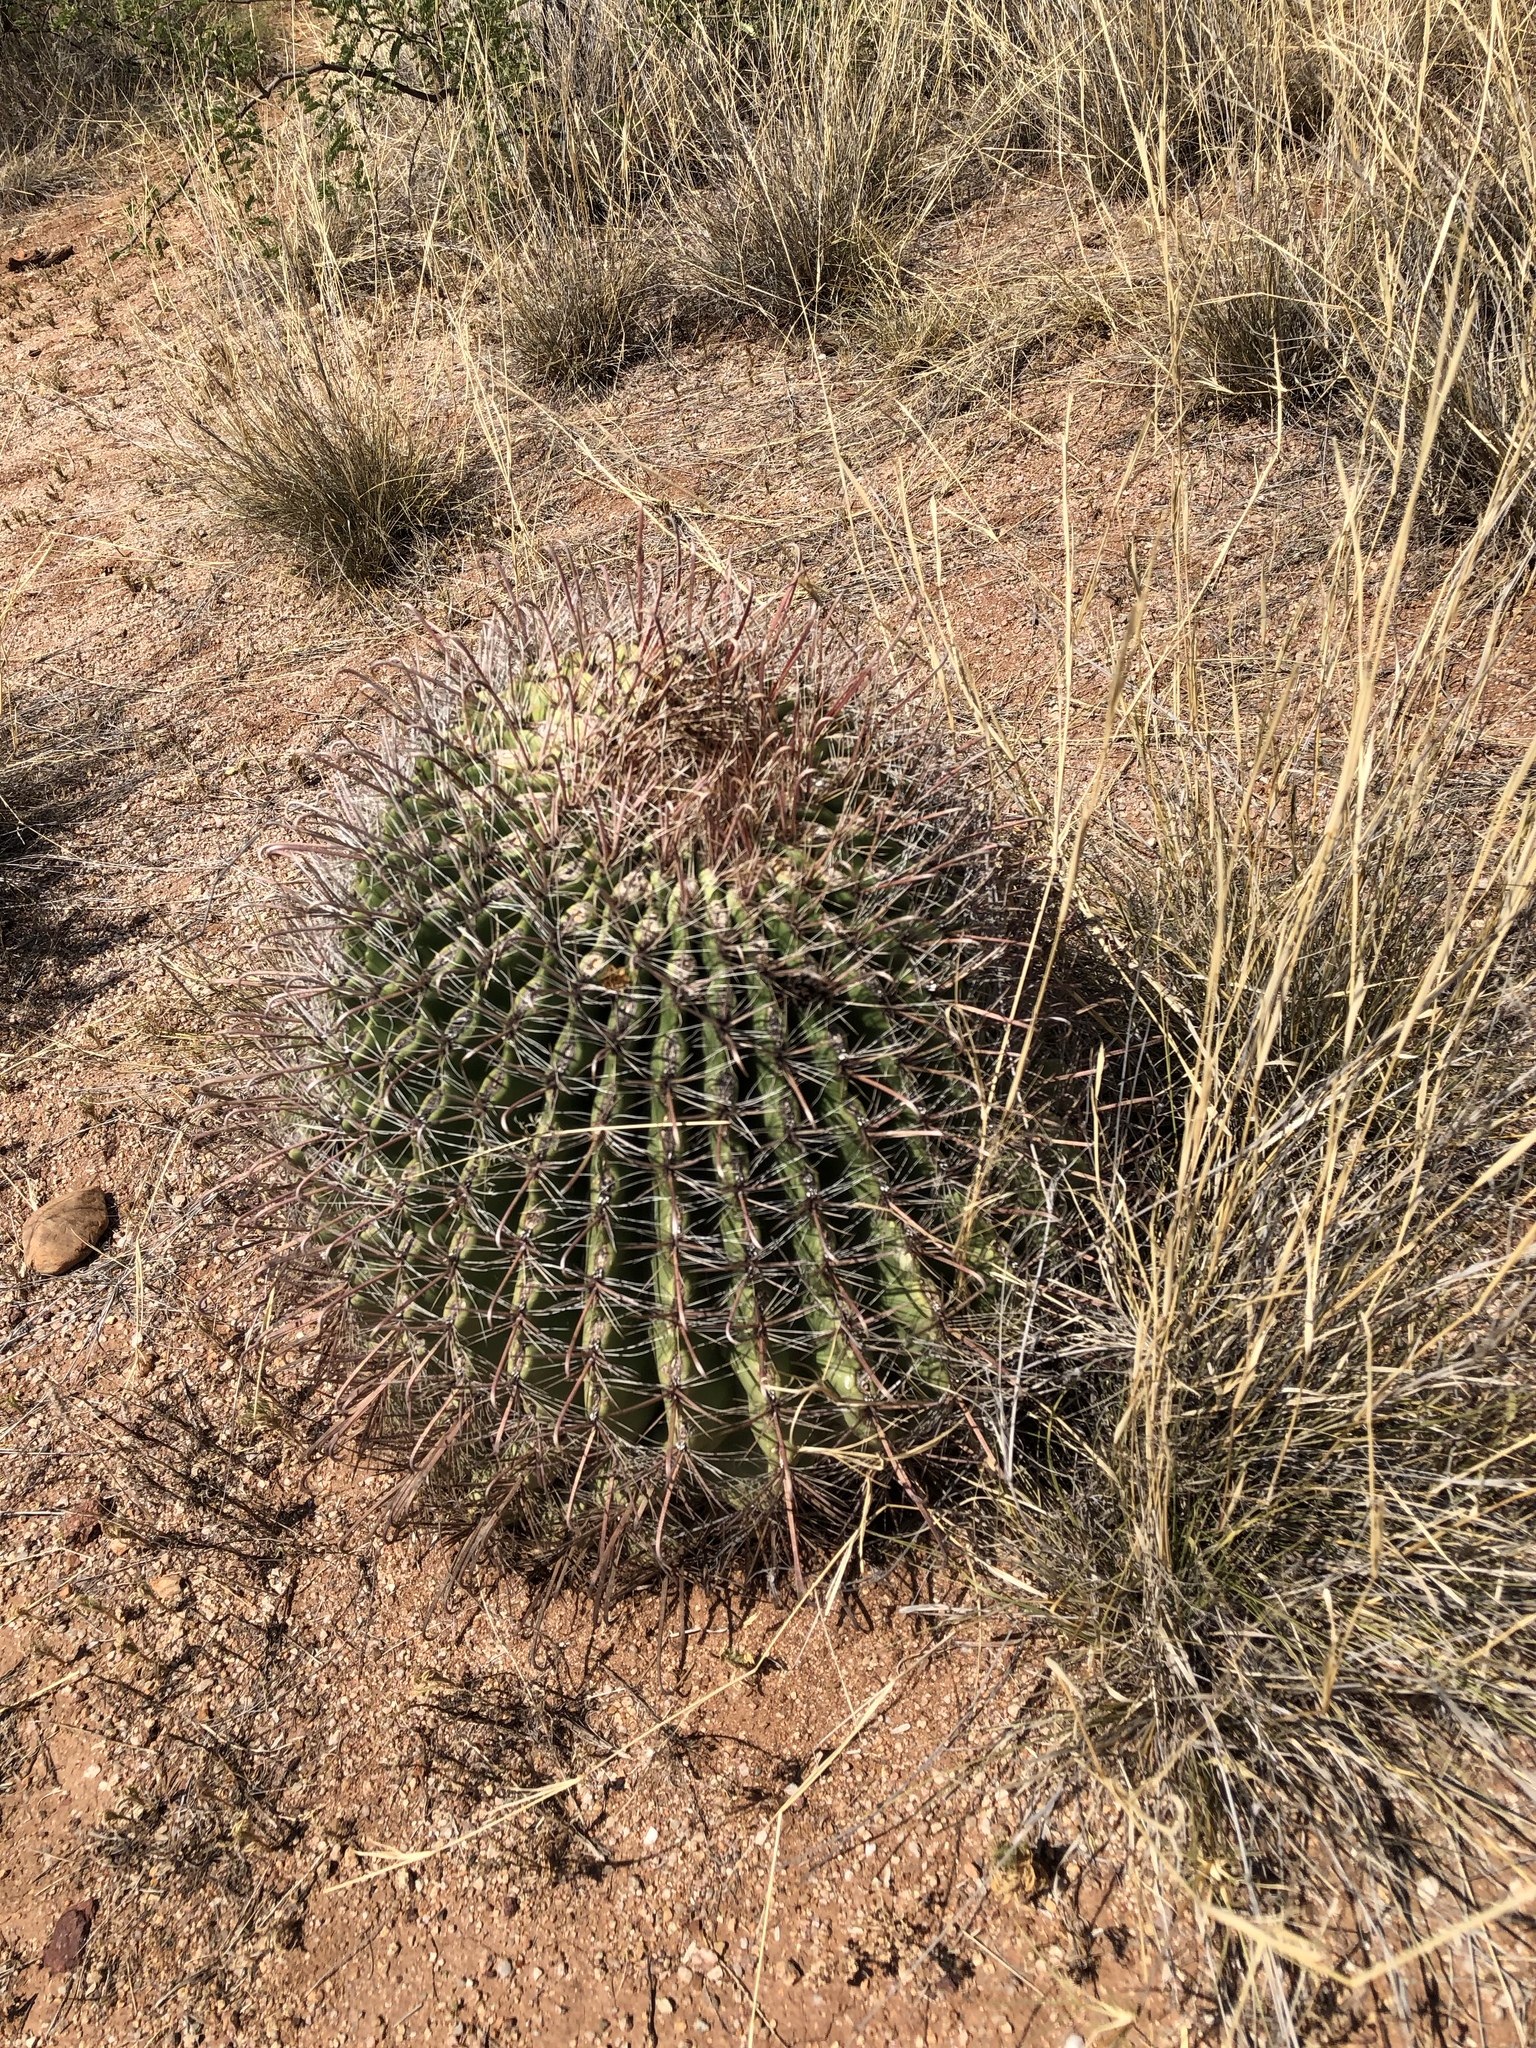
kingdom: Plantae
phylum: Tracheophyta
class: Magnoliopsida
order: Caryophyllales
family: Cactaceae
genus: Ferocactus
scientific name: Ferocactus wislizeni
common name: Candy barrel cactus
